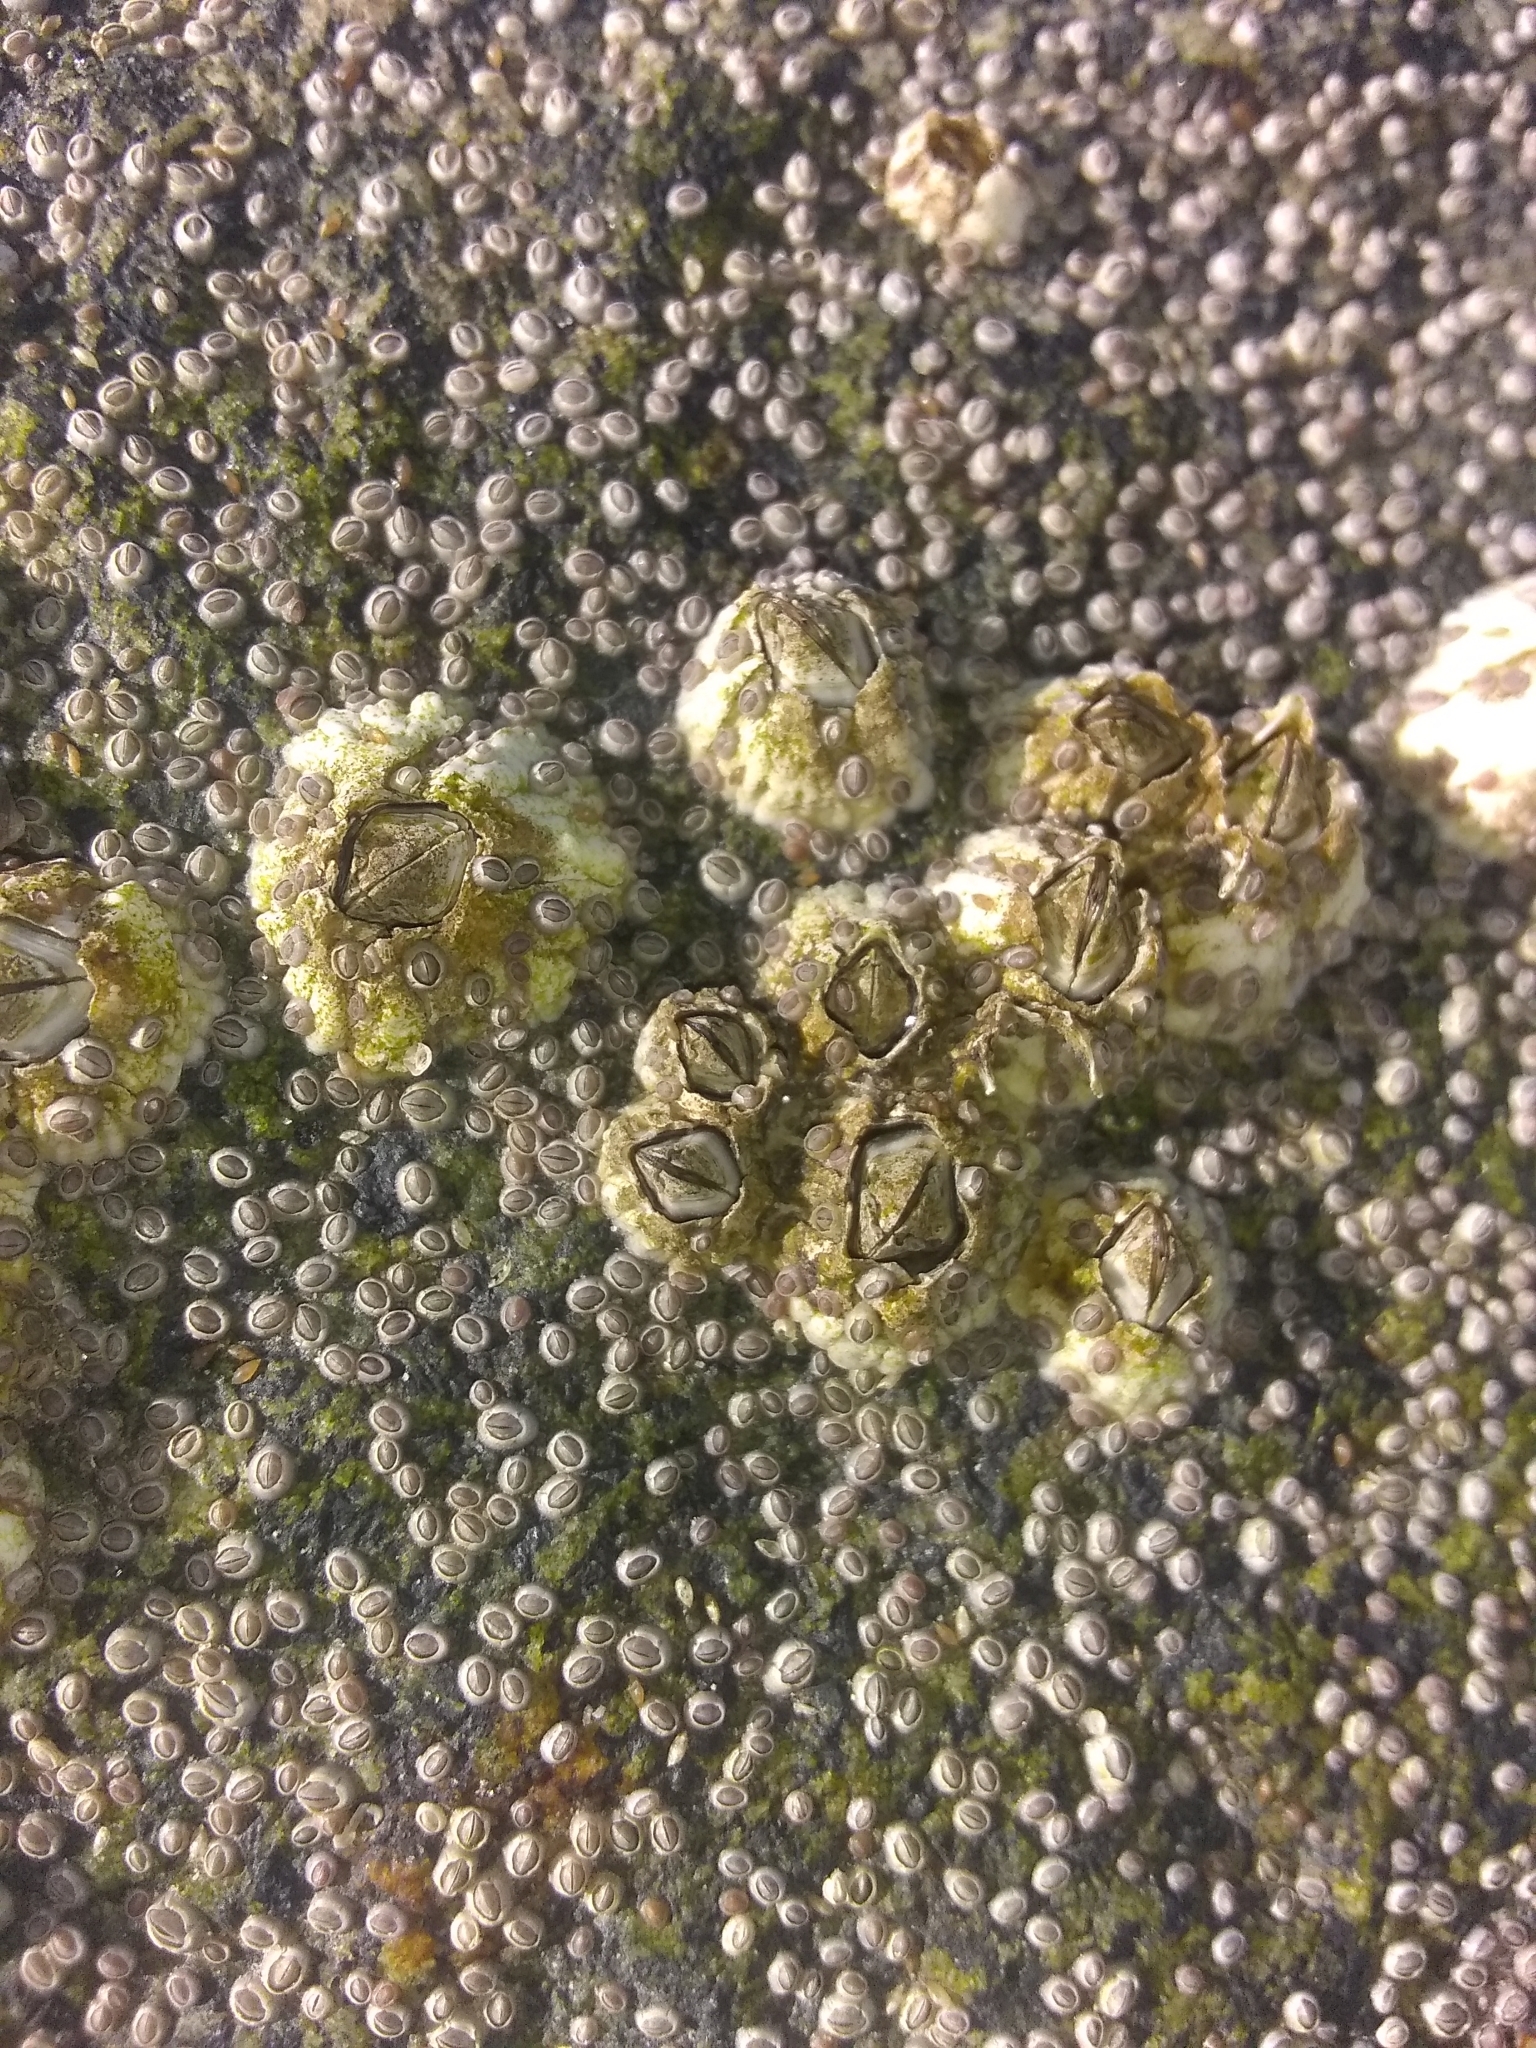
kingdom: Animalia
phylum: Arthropoda
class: Maxillopoda
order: Sessilia
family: Archaeobalanidae
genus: Semibalanus
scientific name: Semibalanus balanoides
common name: Acorn barnacle
